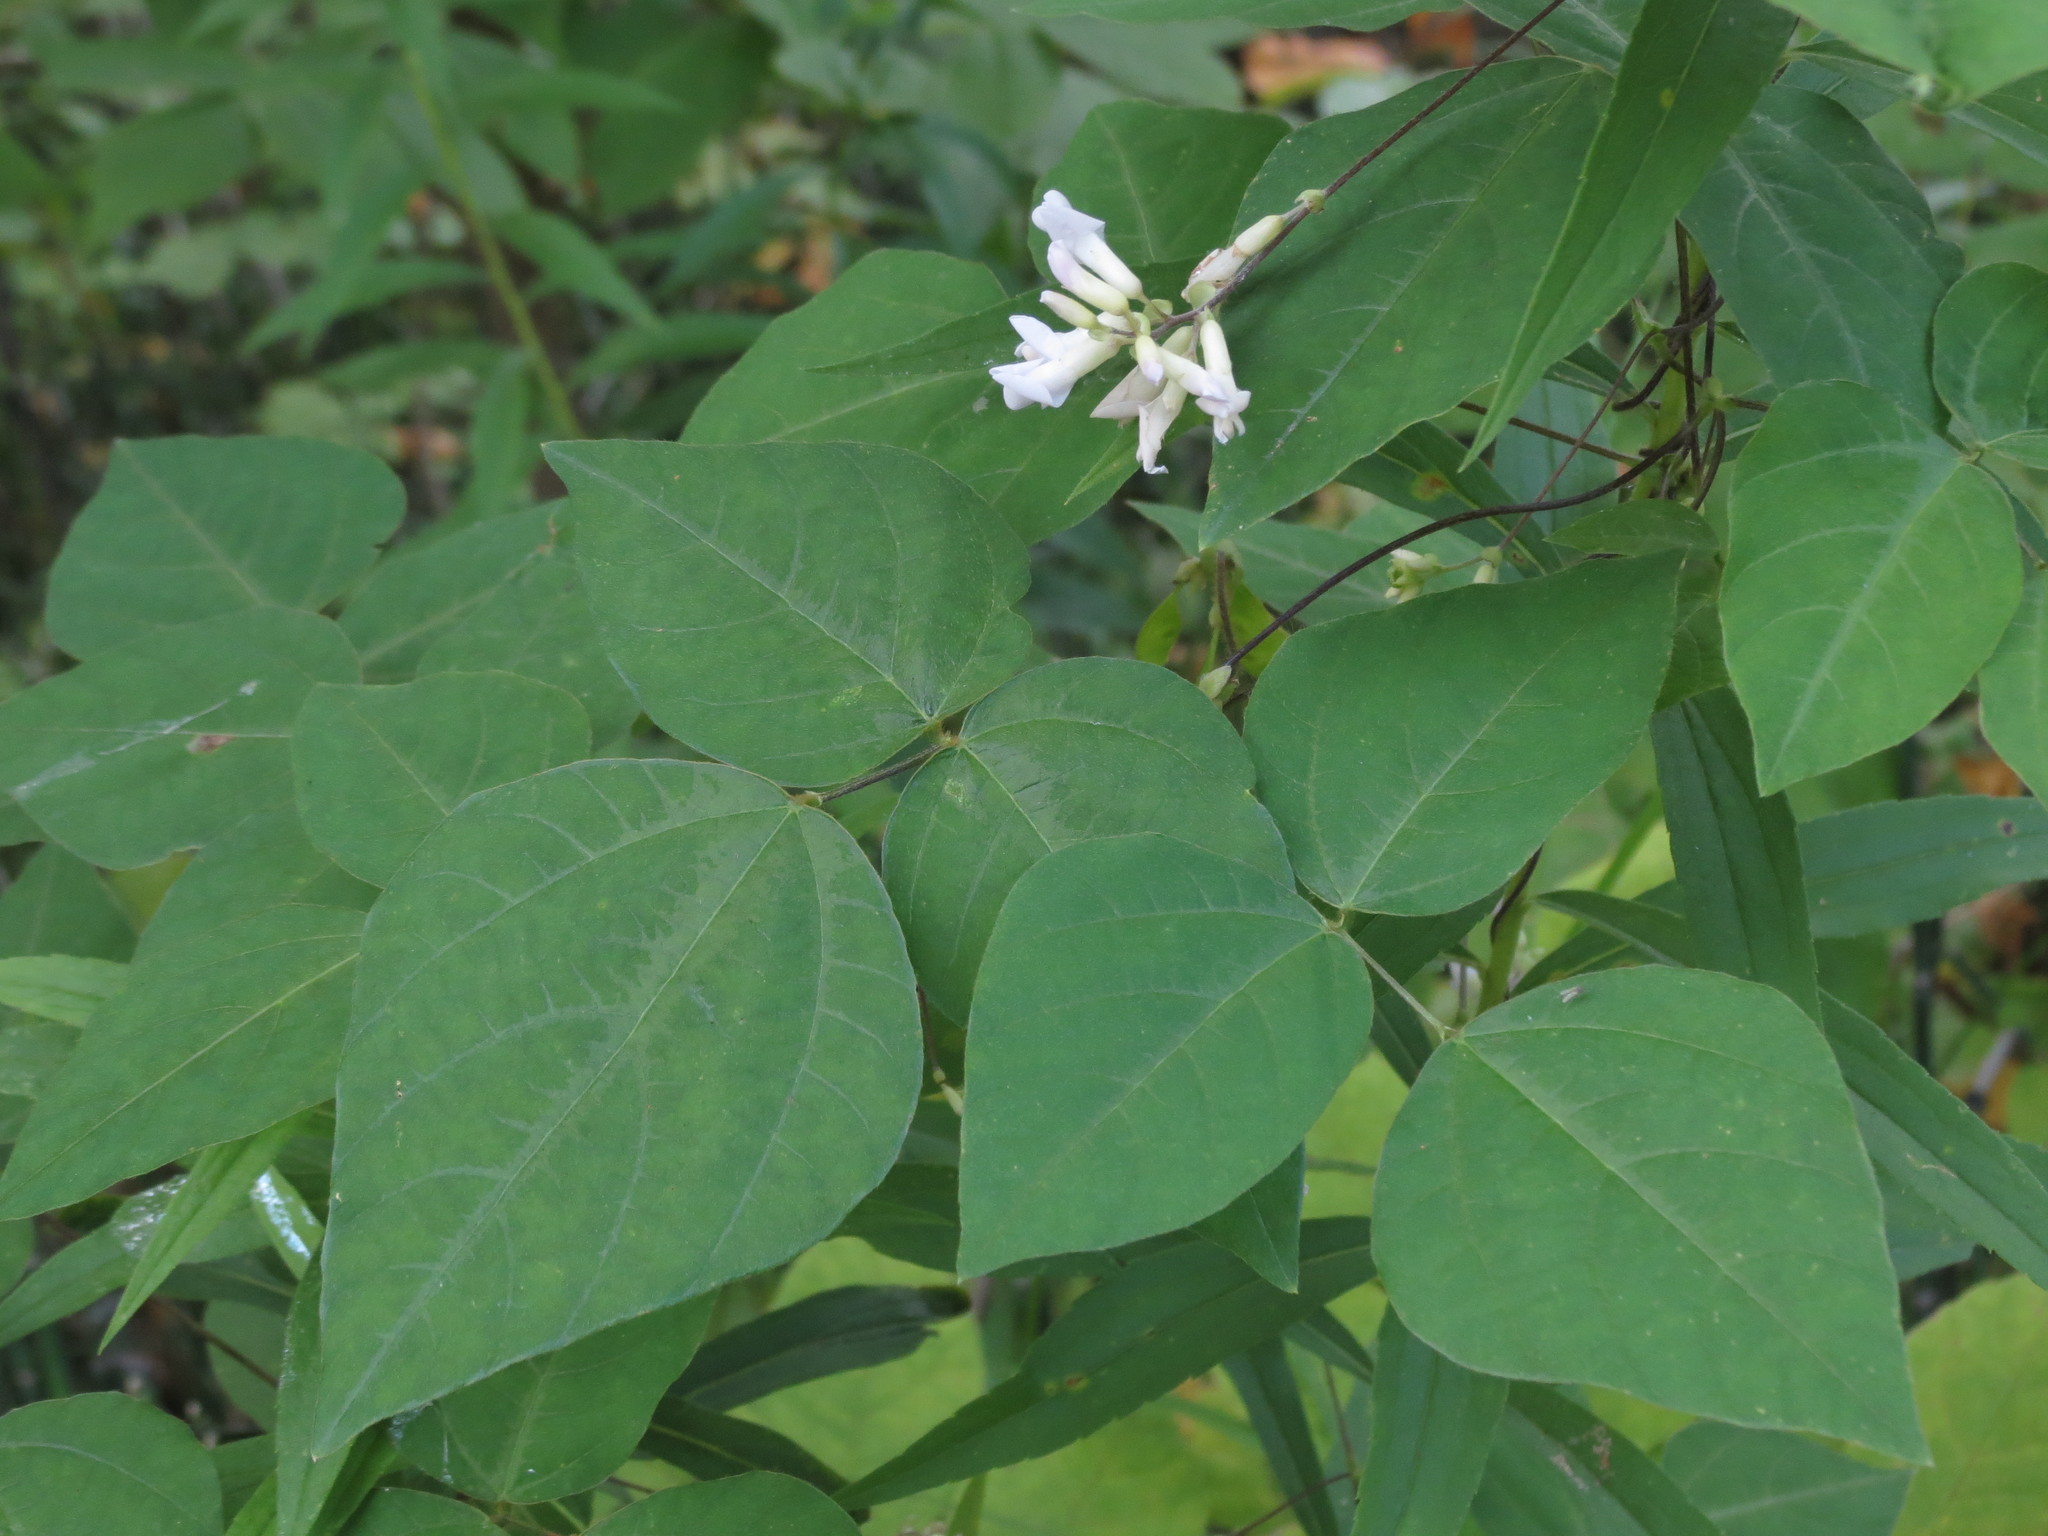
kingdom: Plantae
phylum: Tracheophyta
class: Magnoliopsida
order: Fabales
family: Fabaceae
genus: Amphicarpaea
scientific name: Amphicarpaea bracteata
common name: American hog peanut
